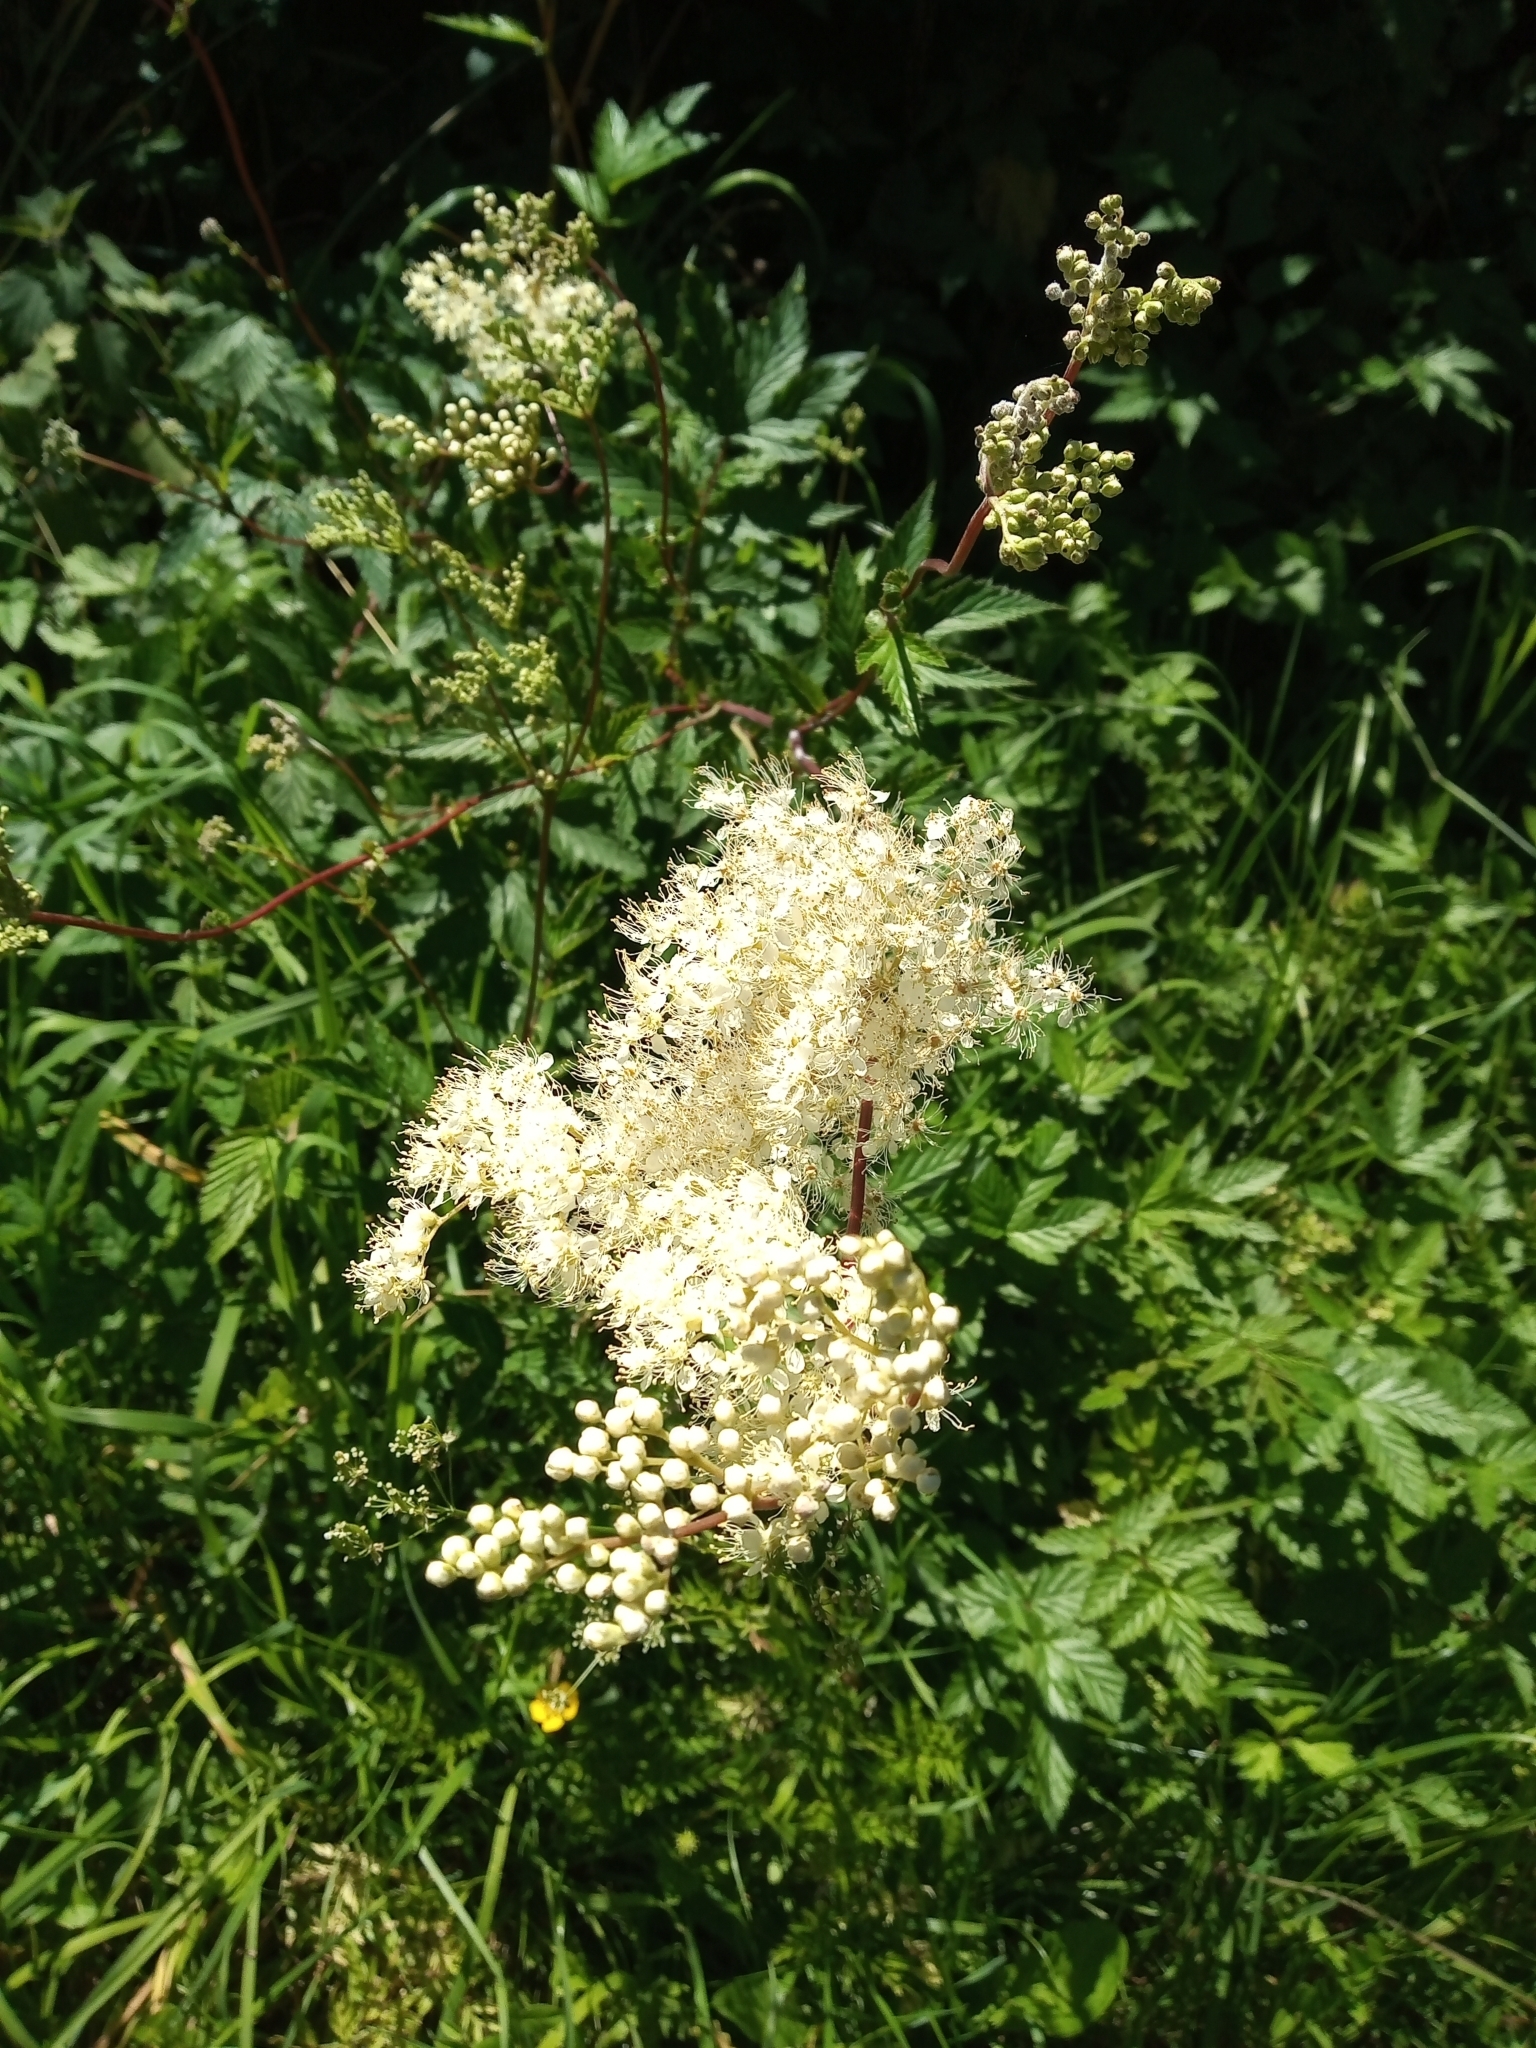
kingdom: Plantae
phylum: Tracheophyta
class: Magnoliopsida
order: Rosales
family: Rosaceae
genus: Filipendula
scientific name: Filipendula ulmaria
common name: Meadowsweet
